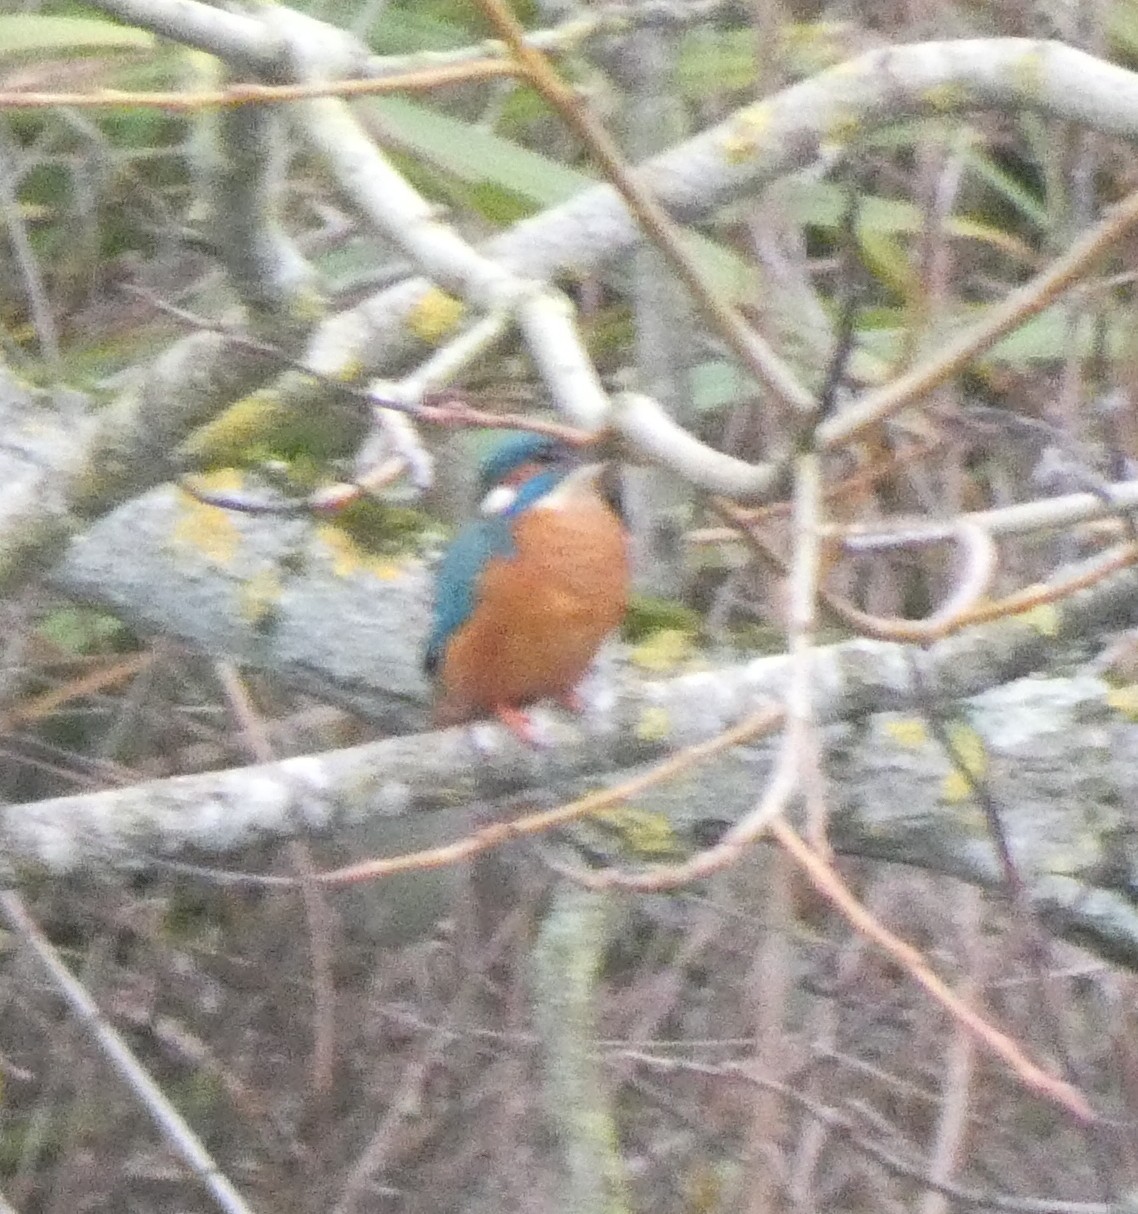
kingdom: Animalia
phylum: Chordata
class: Aves
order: Coraciiformes
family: Alcedinidae
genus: Alcedo
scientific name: Alcedo atthis
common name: Common kingfisher
